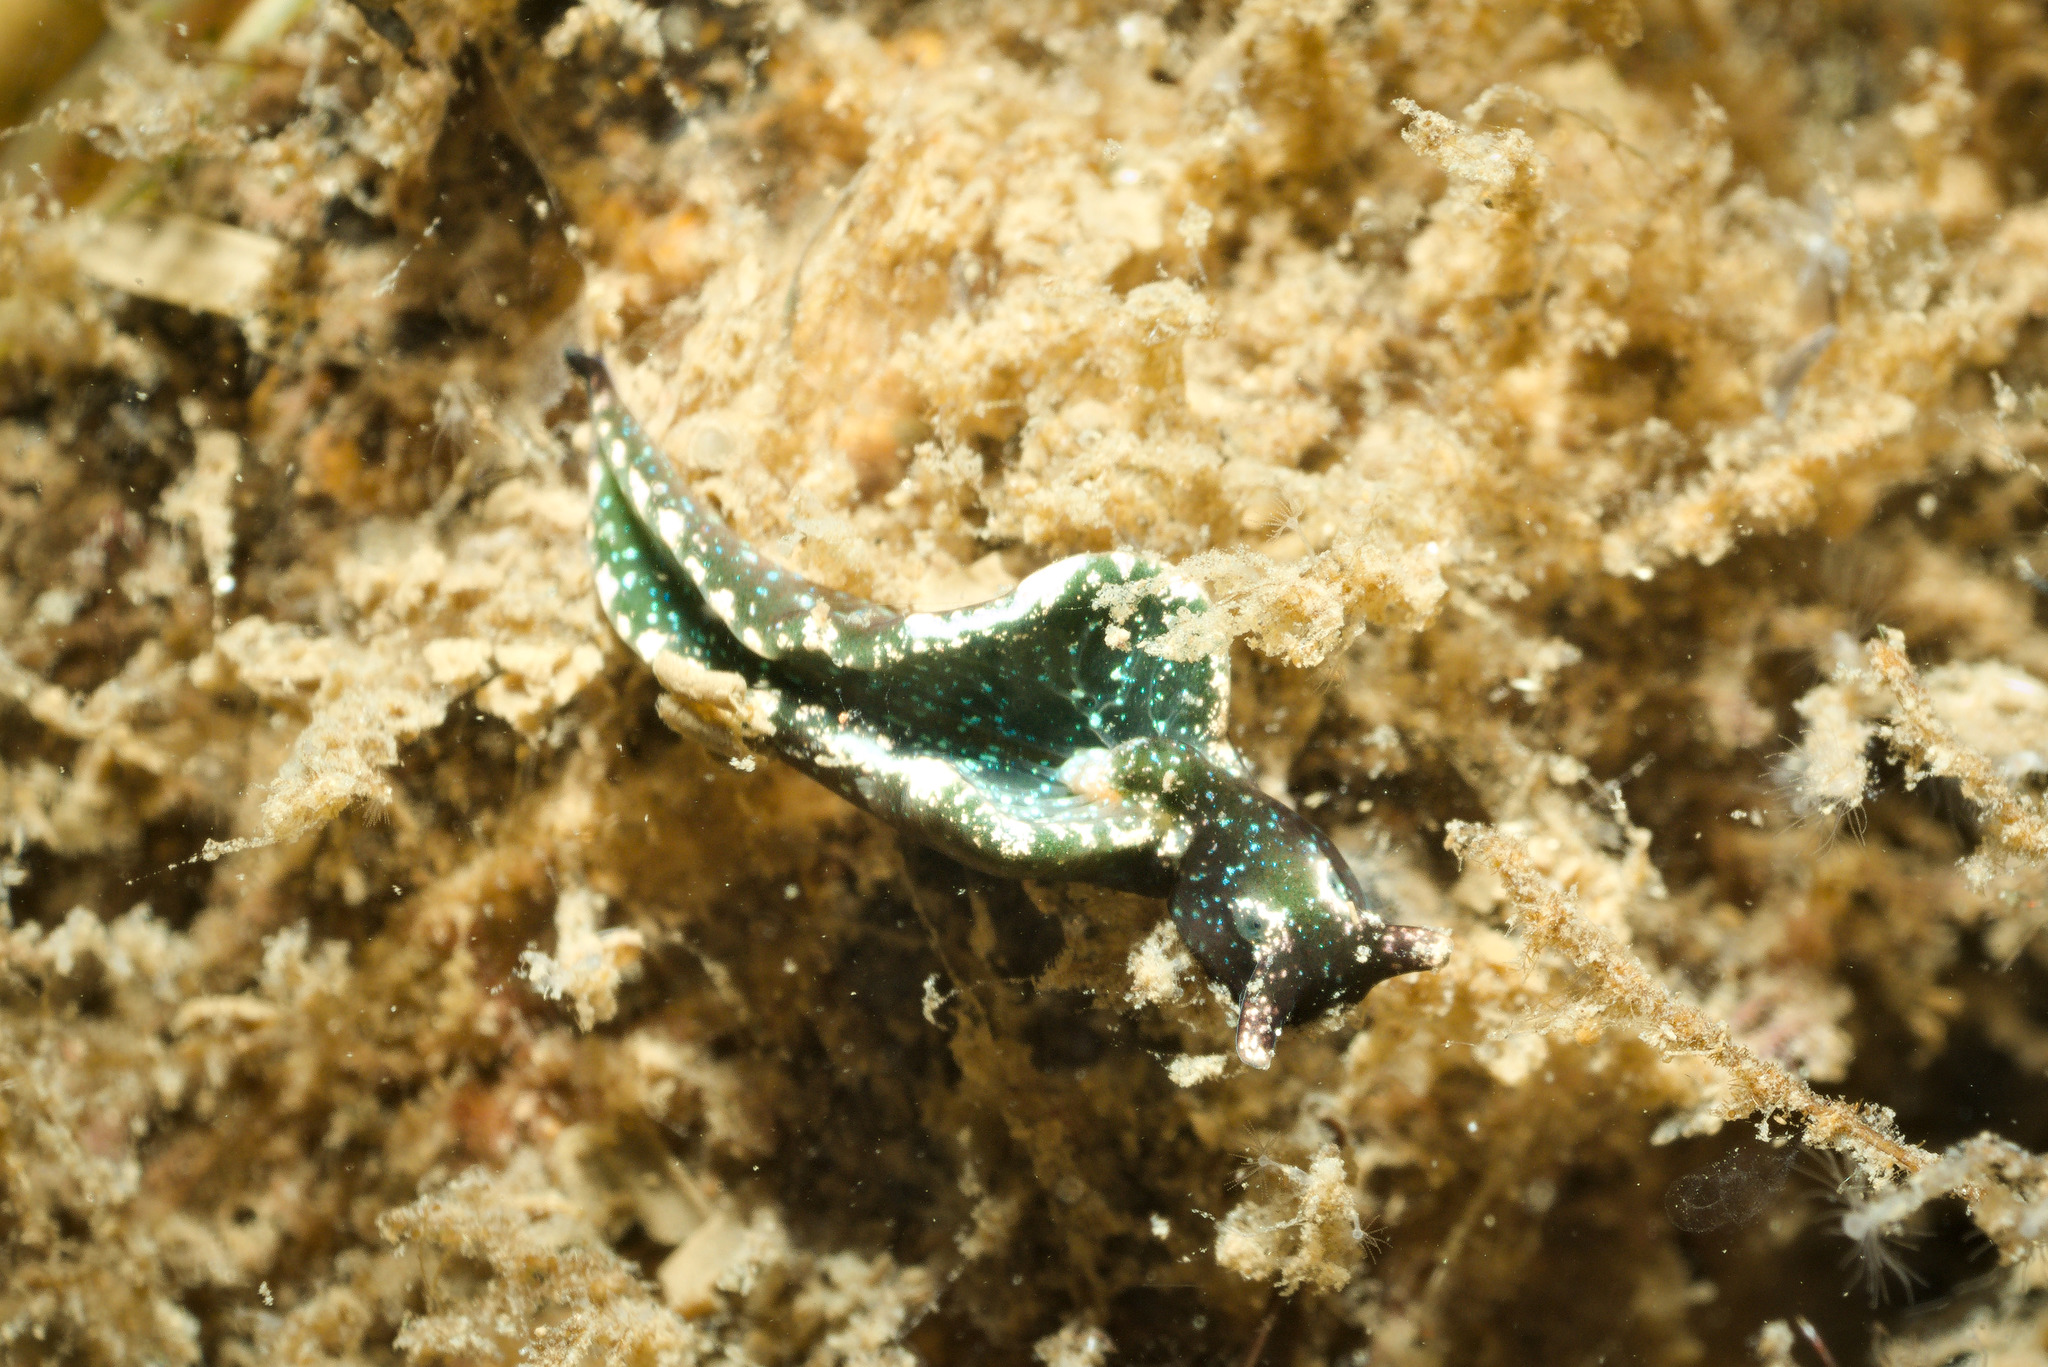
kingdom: Animalia
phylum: Mollusca
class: Gastropoda
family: Plakobranchidae
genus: Elysia
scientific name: Elysia viridis
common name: Green elysia
